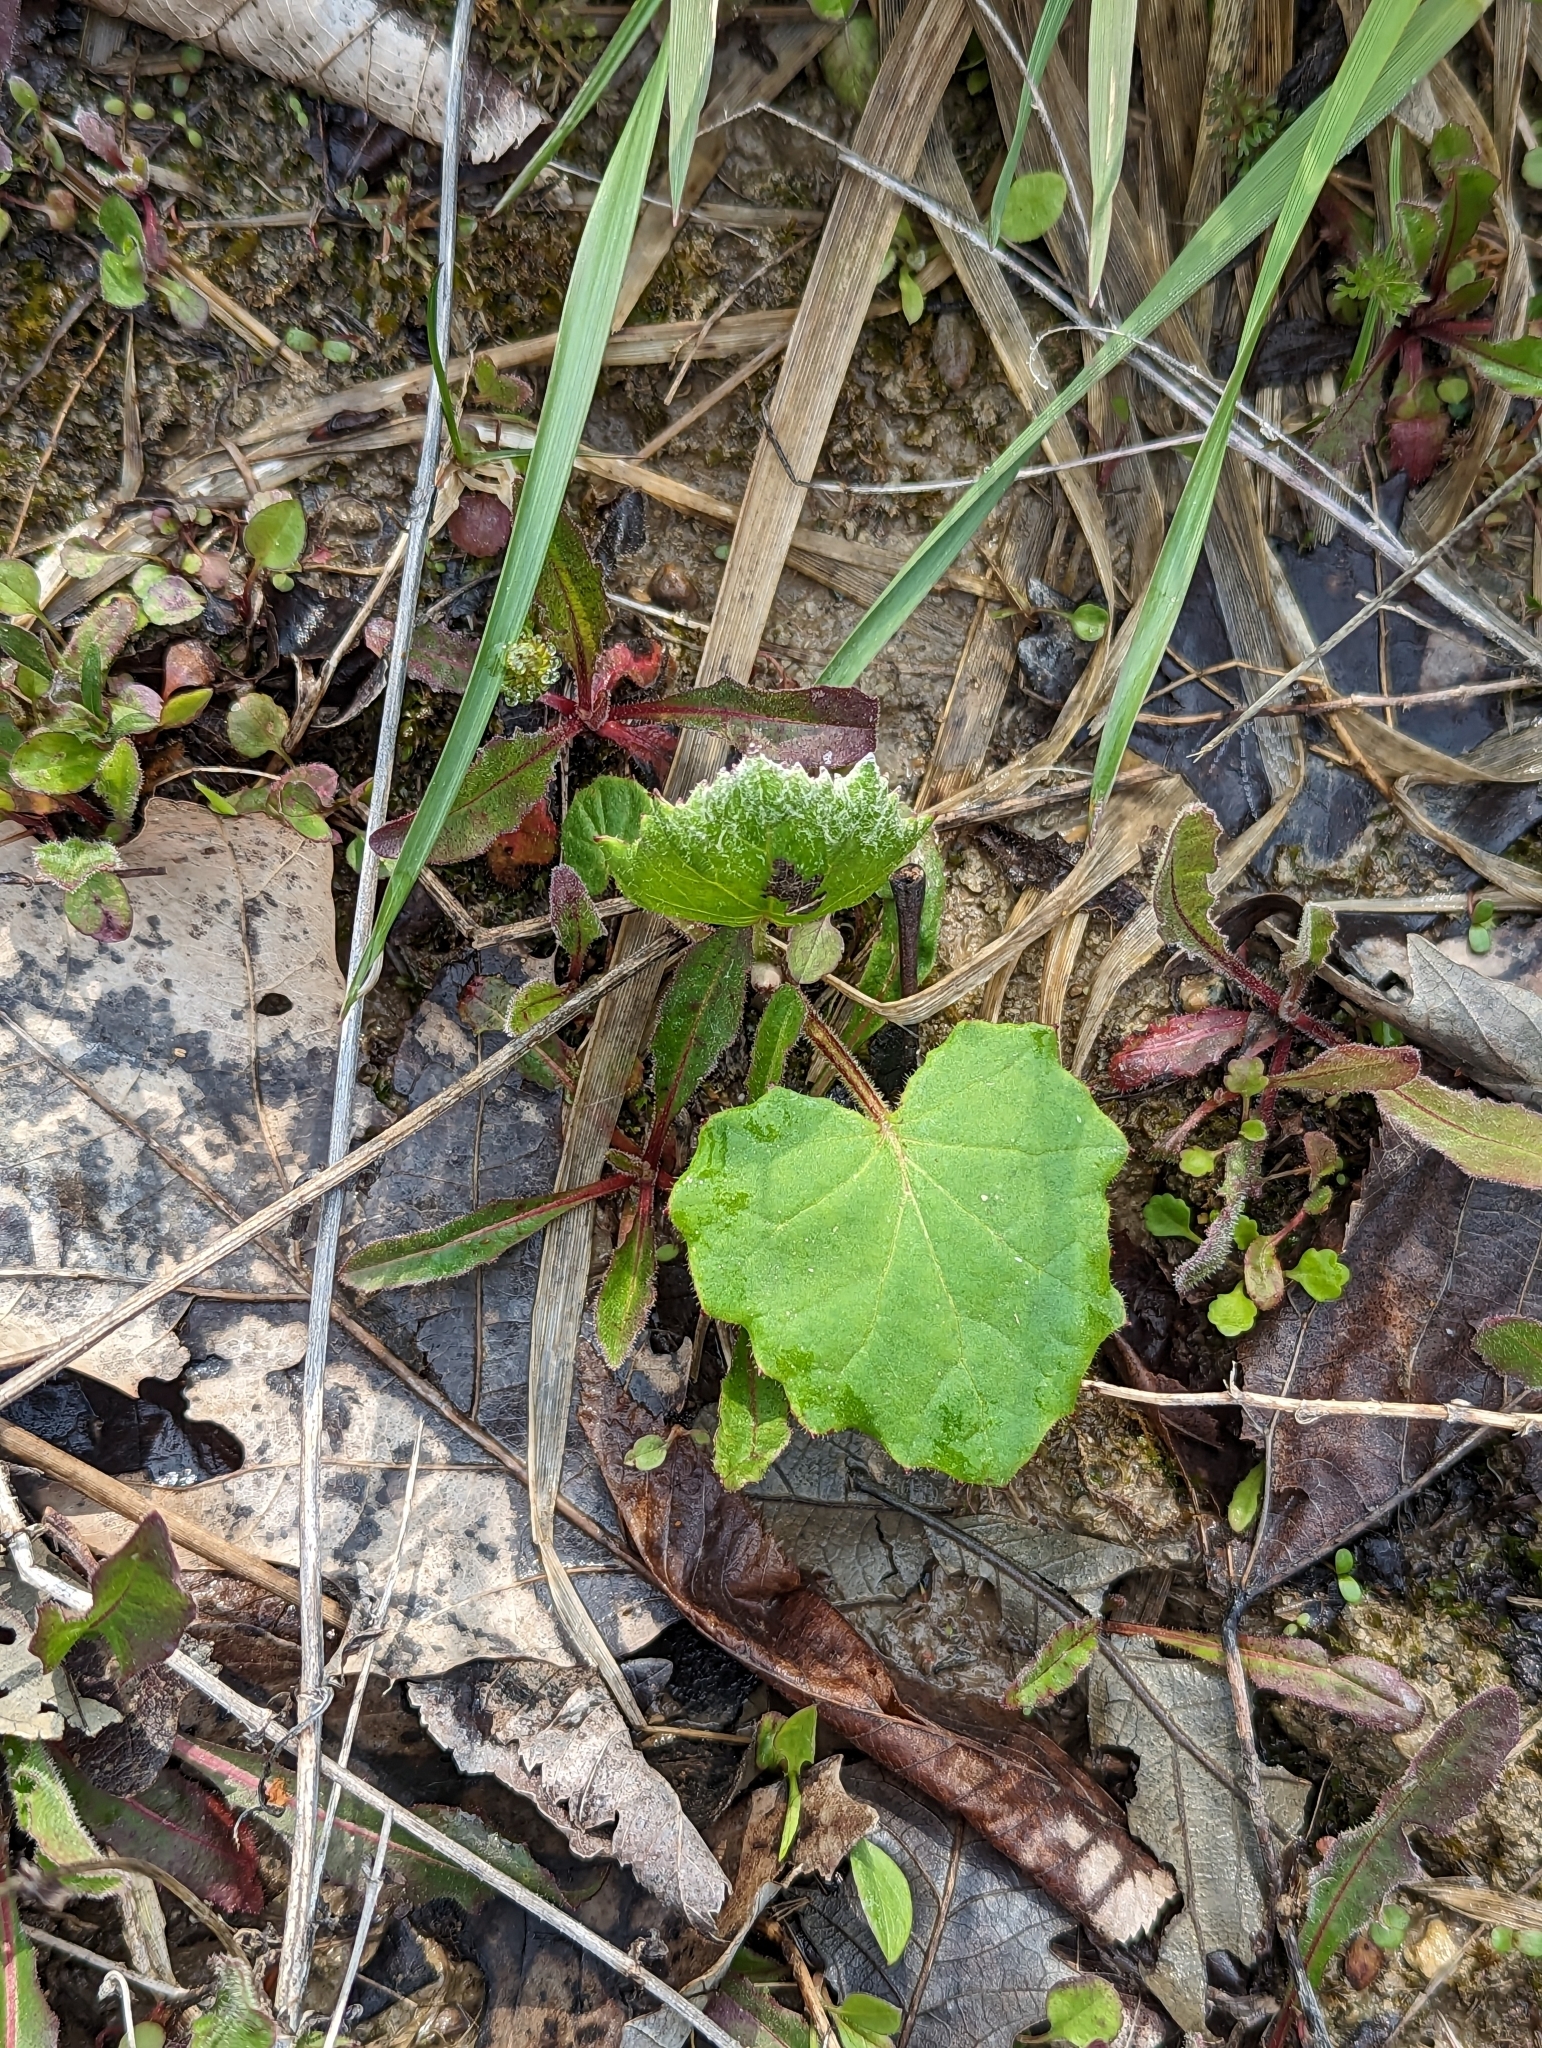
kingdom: Plantae
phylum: Tracheophyta
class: Magnoliopsida
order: Asterales
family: Asteraceae
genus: Tussilago
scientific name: Tussilago farfara
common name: Coltsfoot
